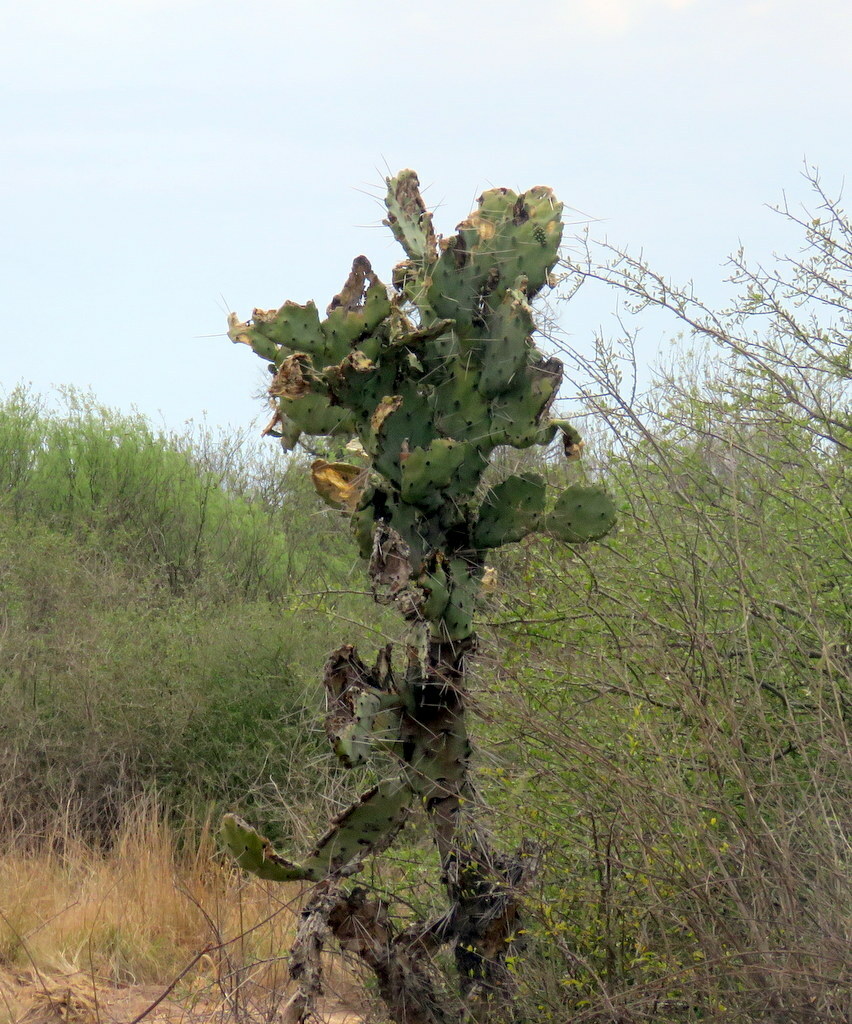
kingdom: Plantae
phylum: Tracheophyta
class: Magnoliopsida
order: Caryophyllales
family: Cactaceae
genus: Opuntia
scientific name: Opuntia quimilo
